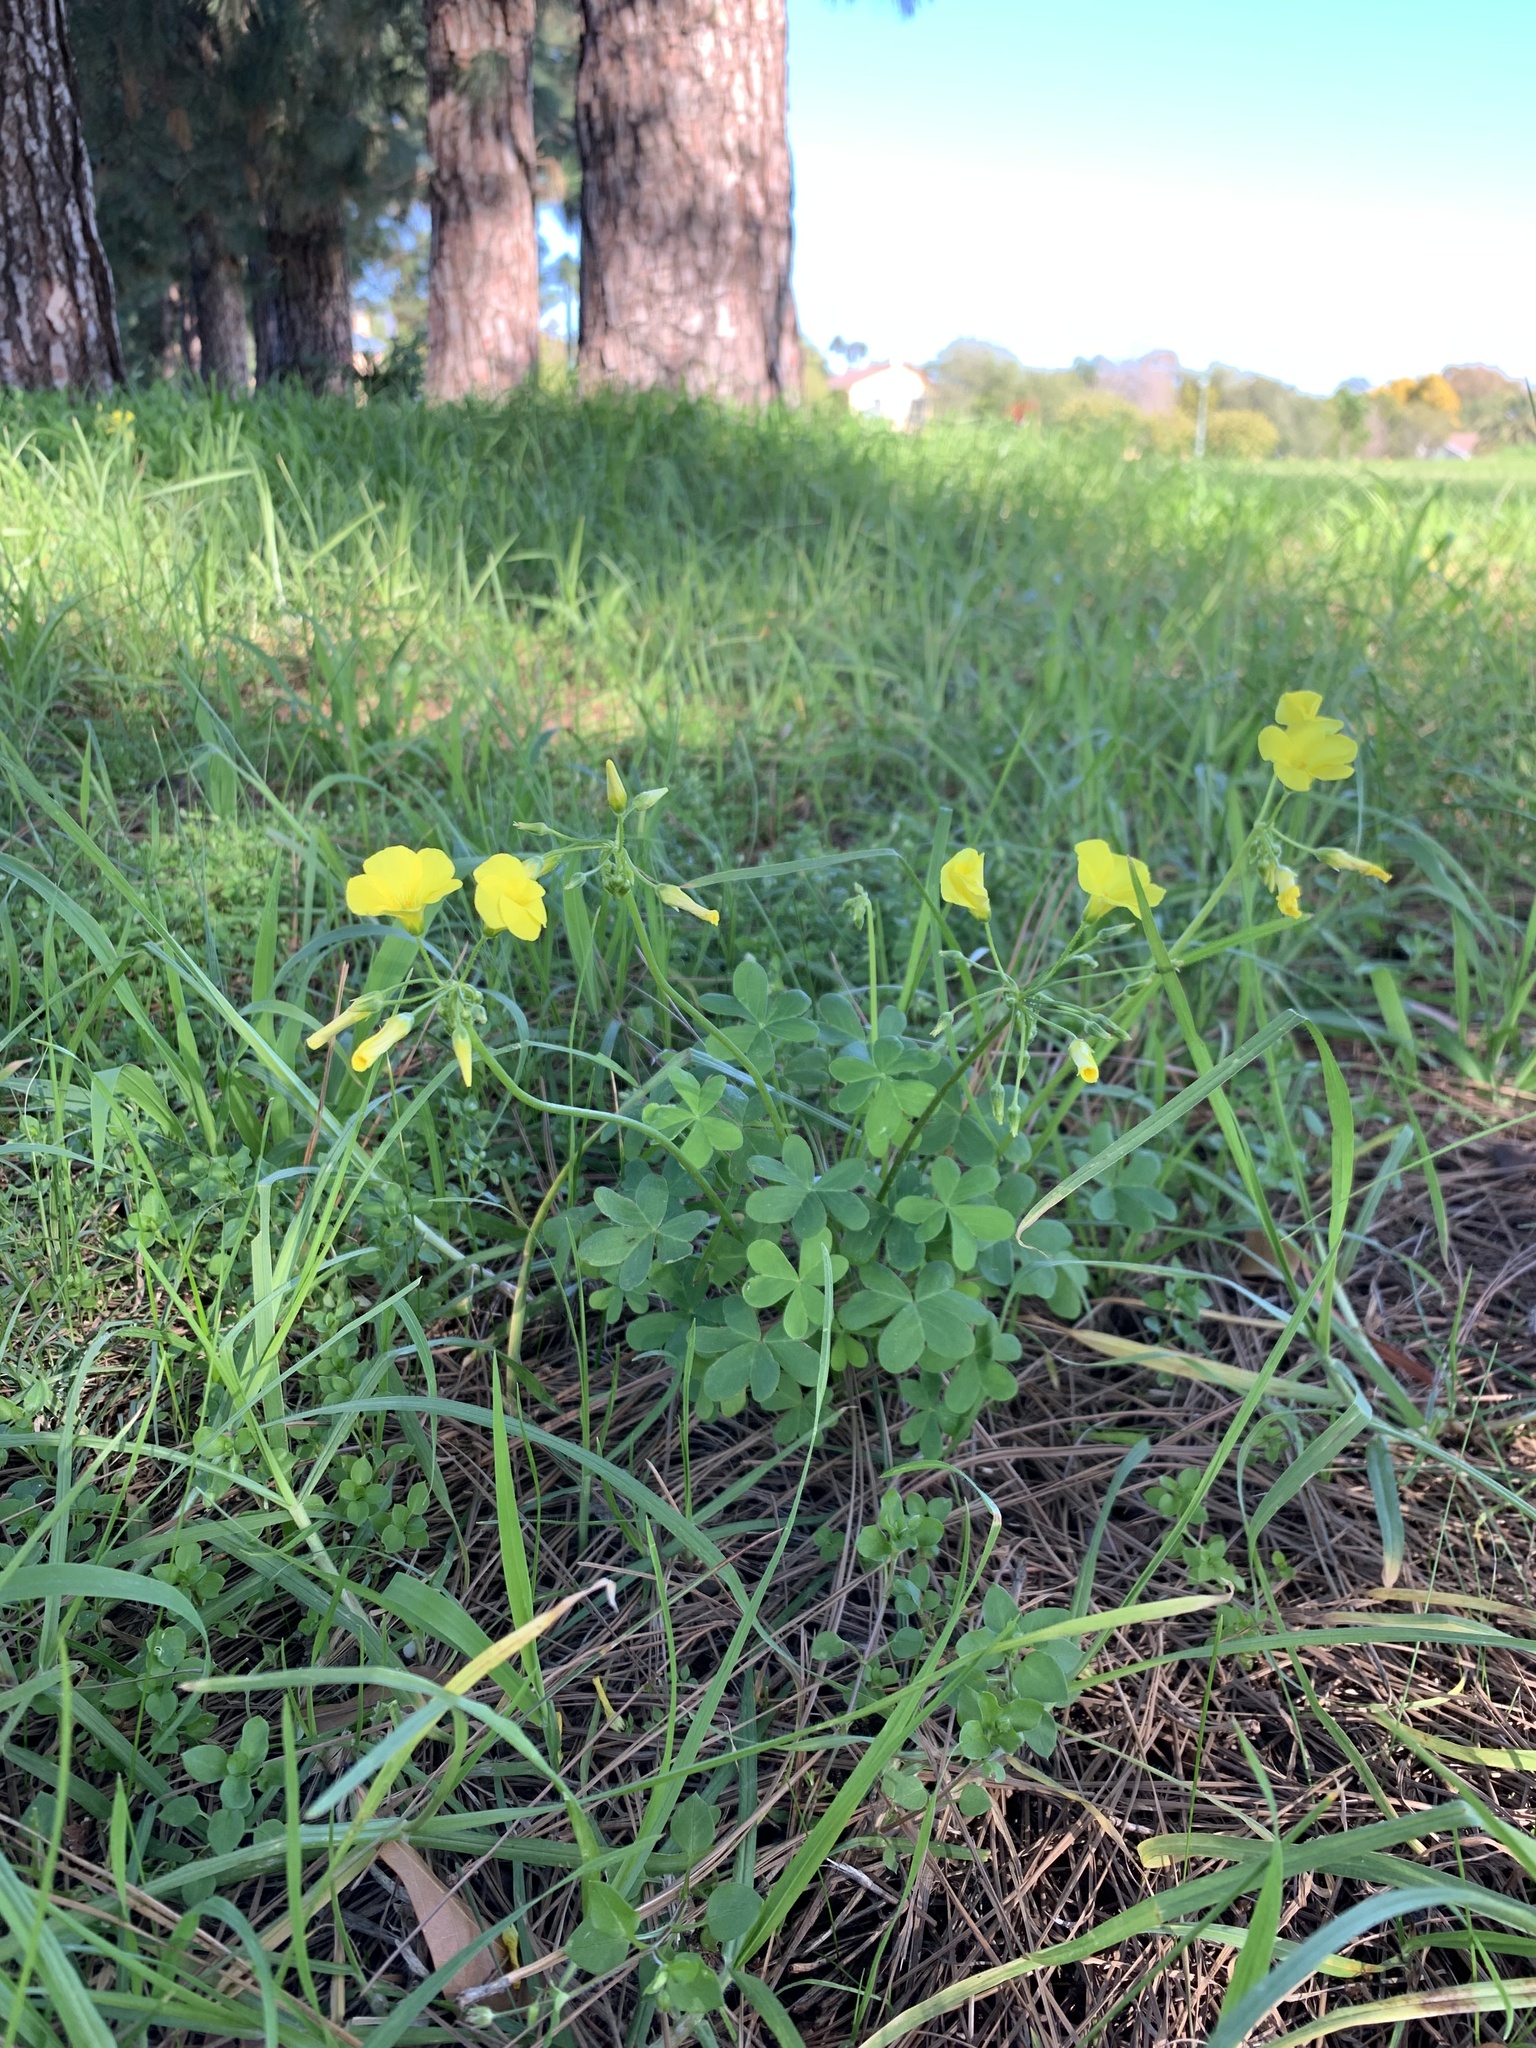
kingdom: Plantae
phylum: Tracheophyta
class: Magnoliopsida
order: Oxalidales
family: Oxalidaceae
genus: Oxalis
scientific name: Oxalis pes-caprae
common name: Bermuda-buttercup
